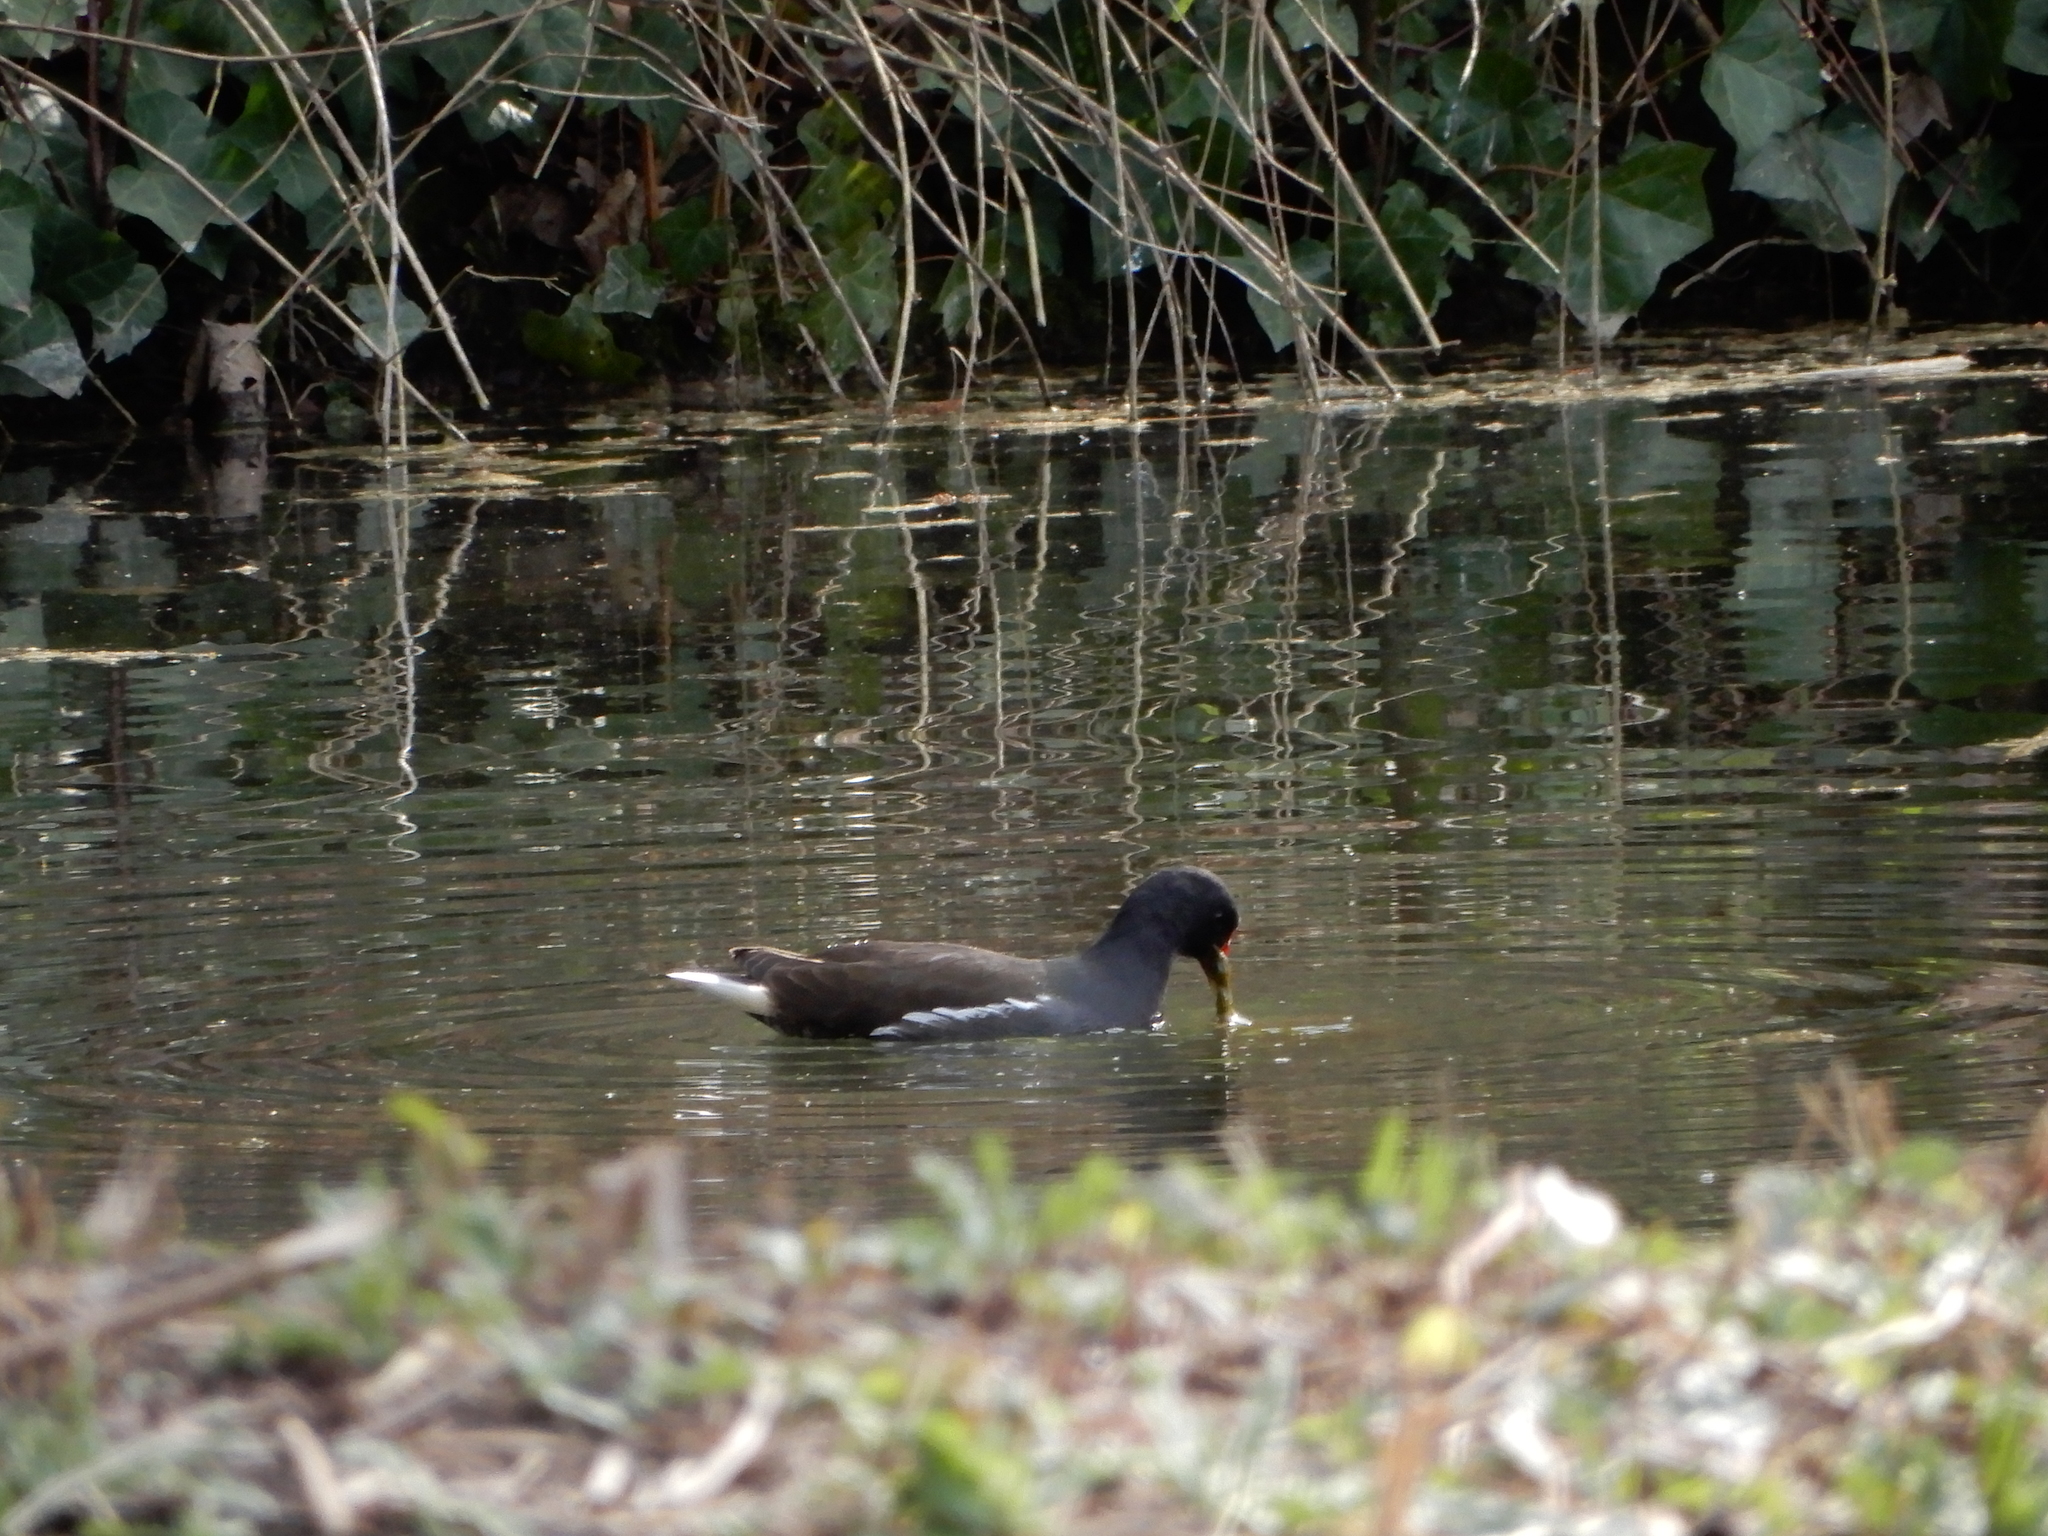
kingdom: Animalia
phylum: Chordata
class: Aves
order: Gruiformes
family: Rallidae
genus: Gallinula
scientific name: Gallinula chloropus
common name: Common moorhen
